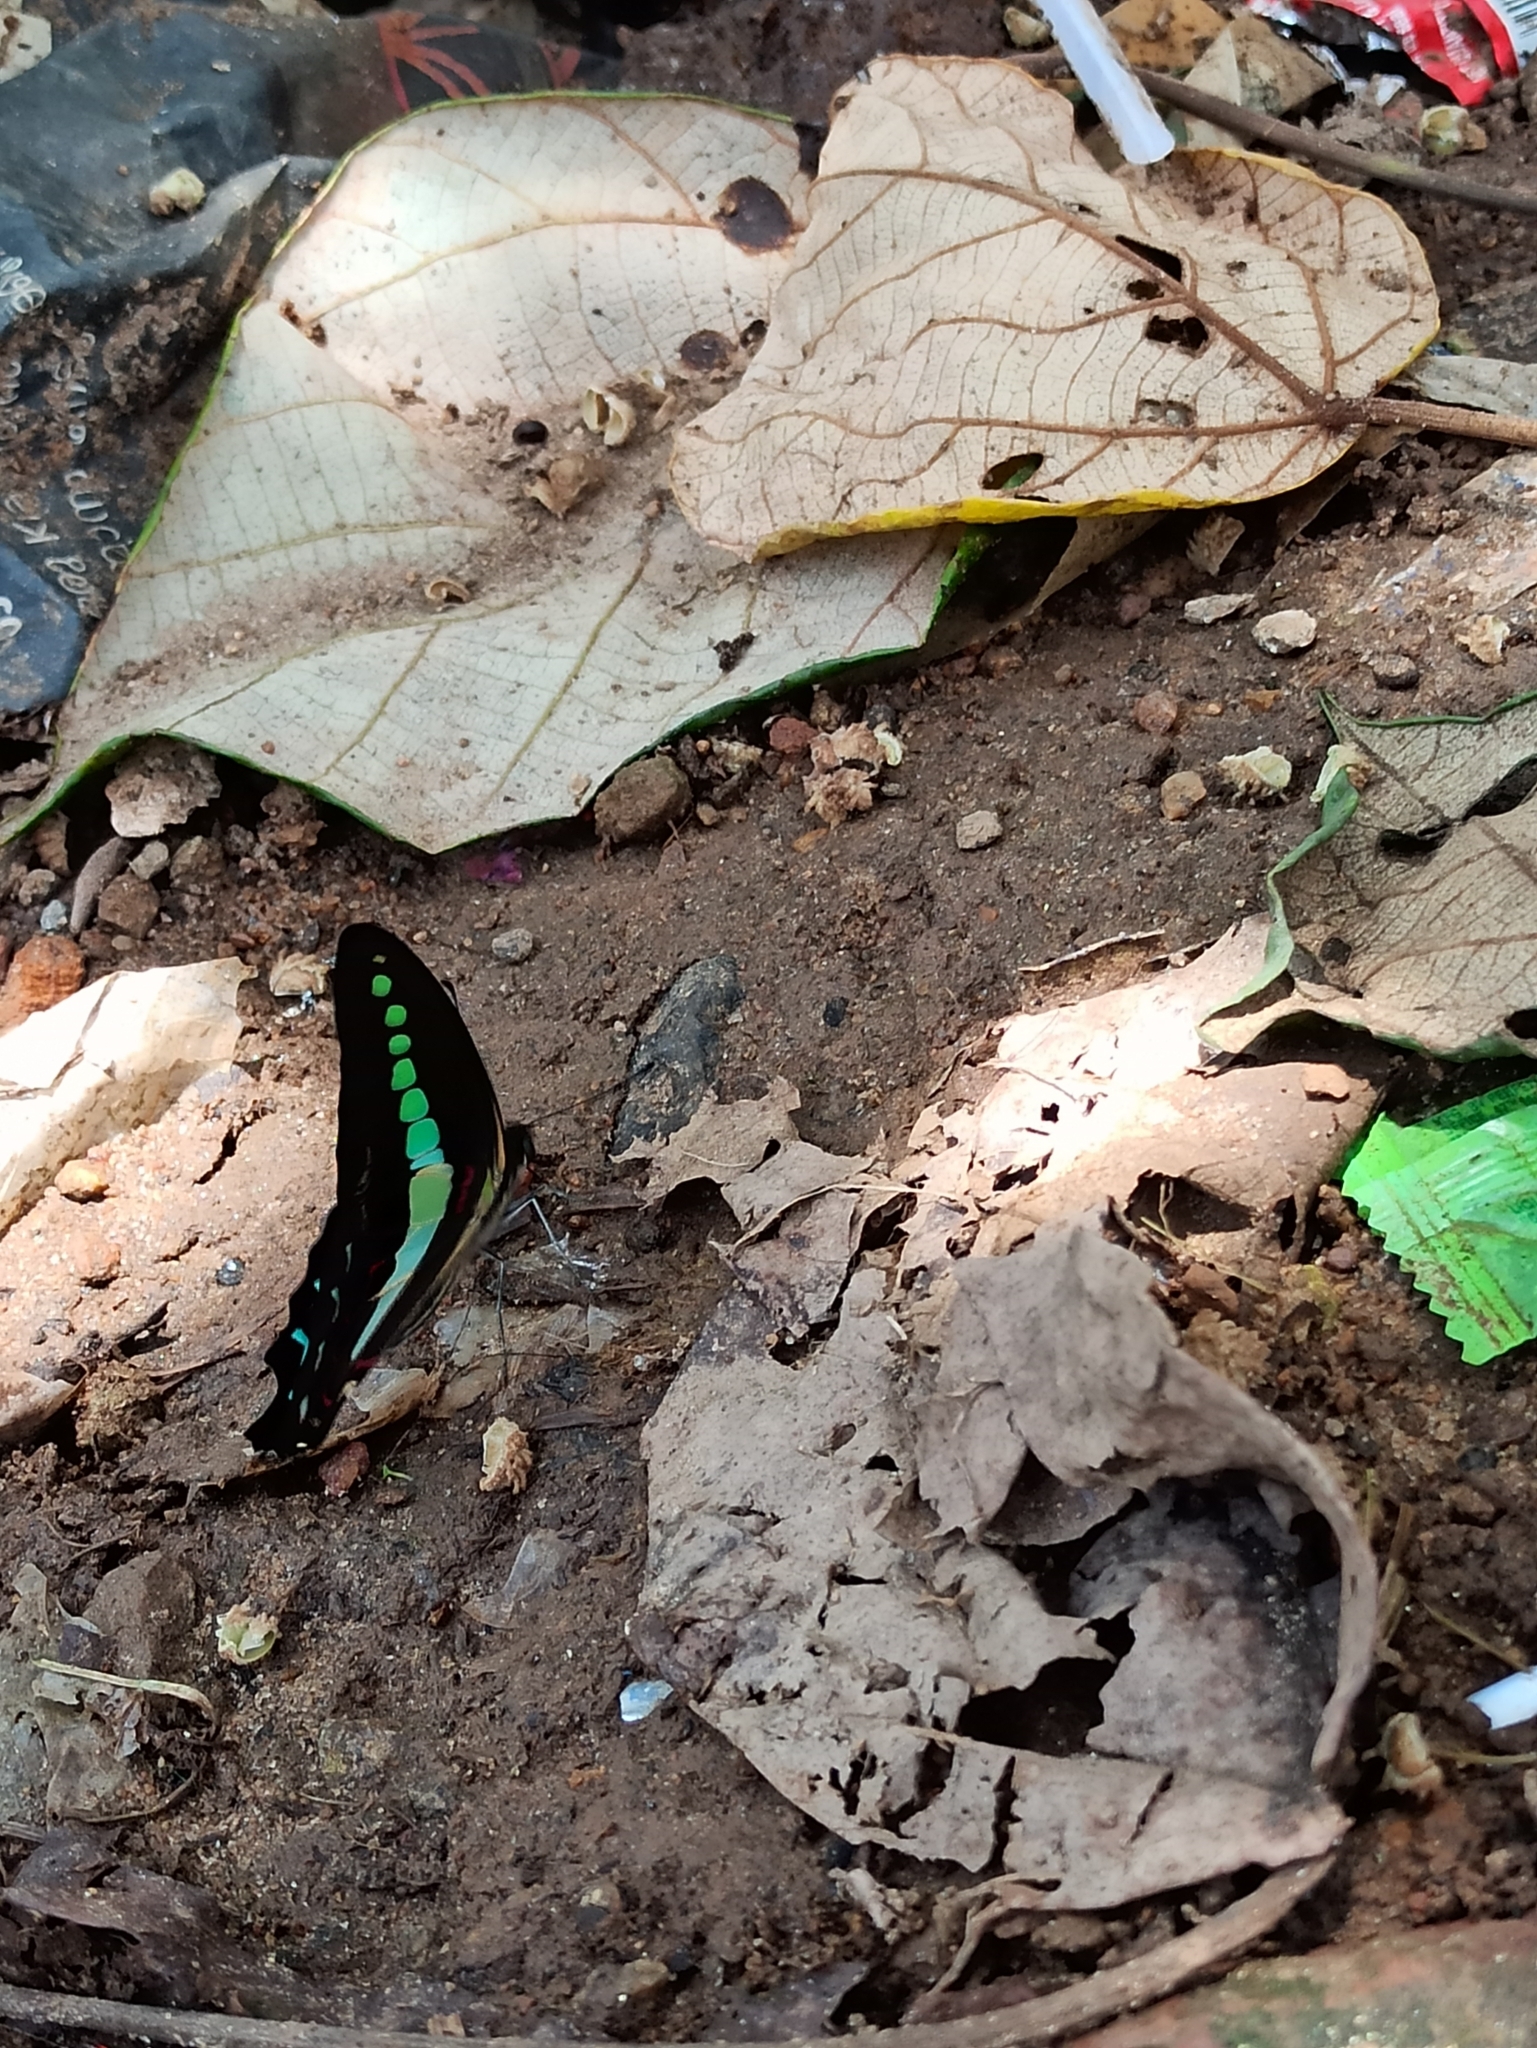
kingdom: Animalia
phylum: Arthropoda
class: Insecta
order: Lepidoptera
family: Papilionidae
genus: Graphium
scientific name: Graphium
